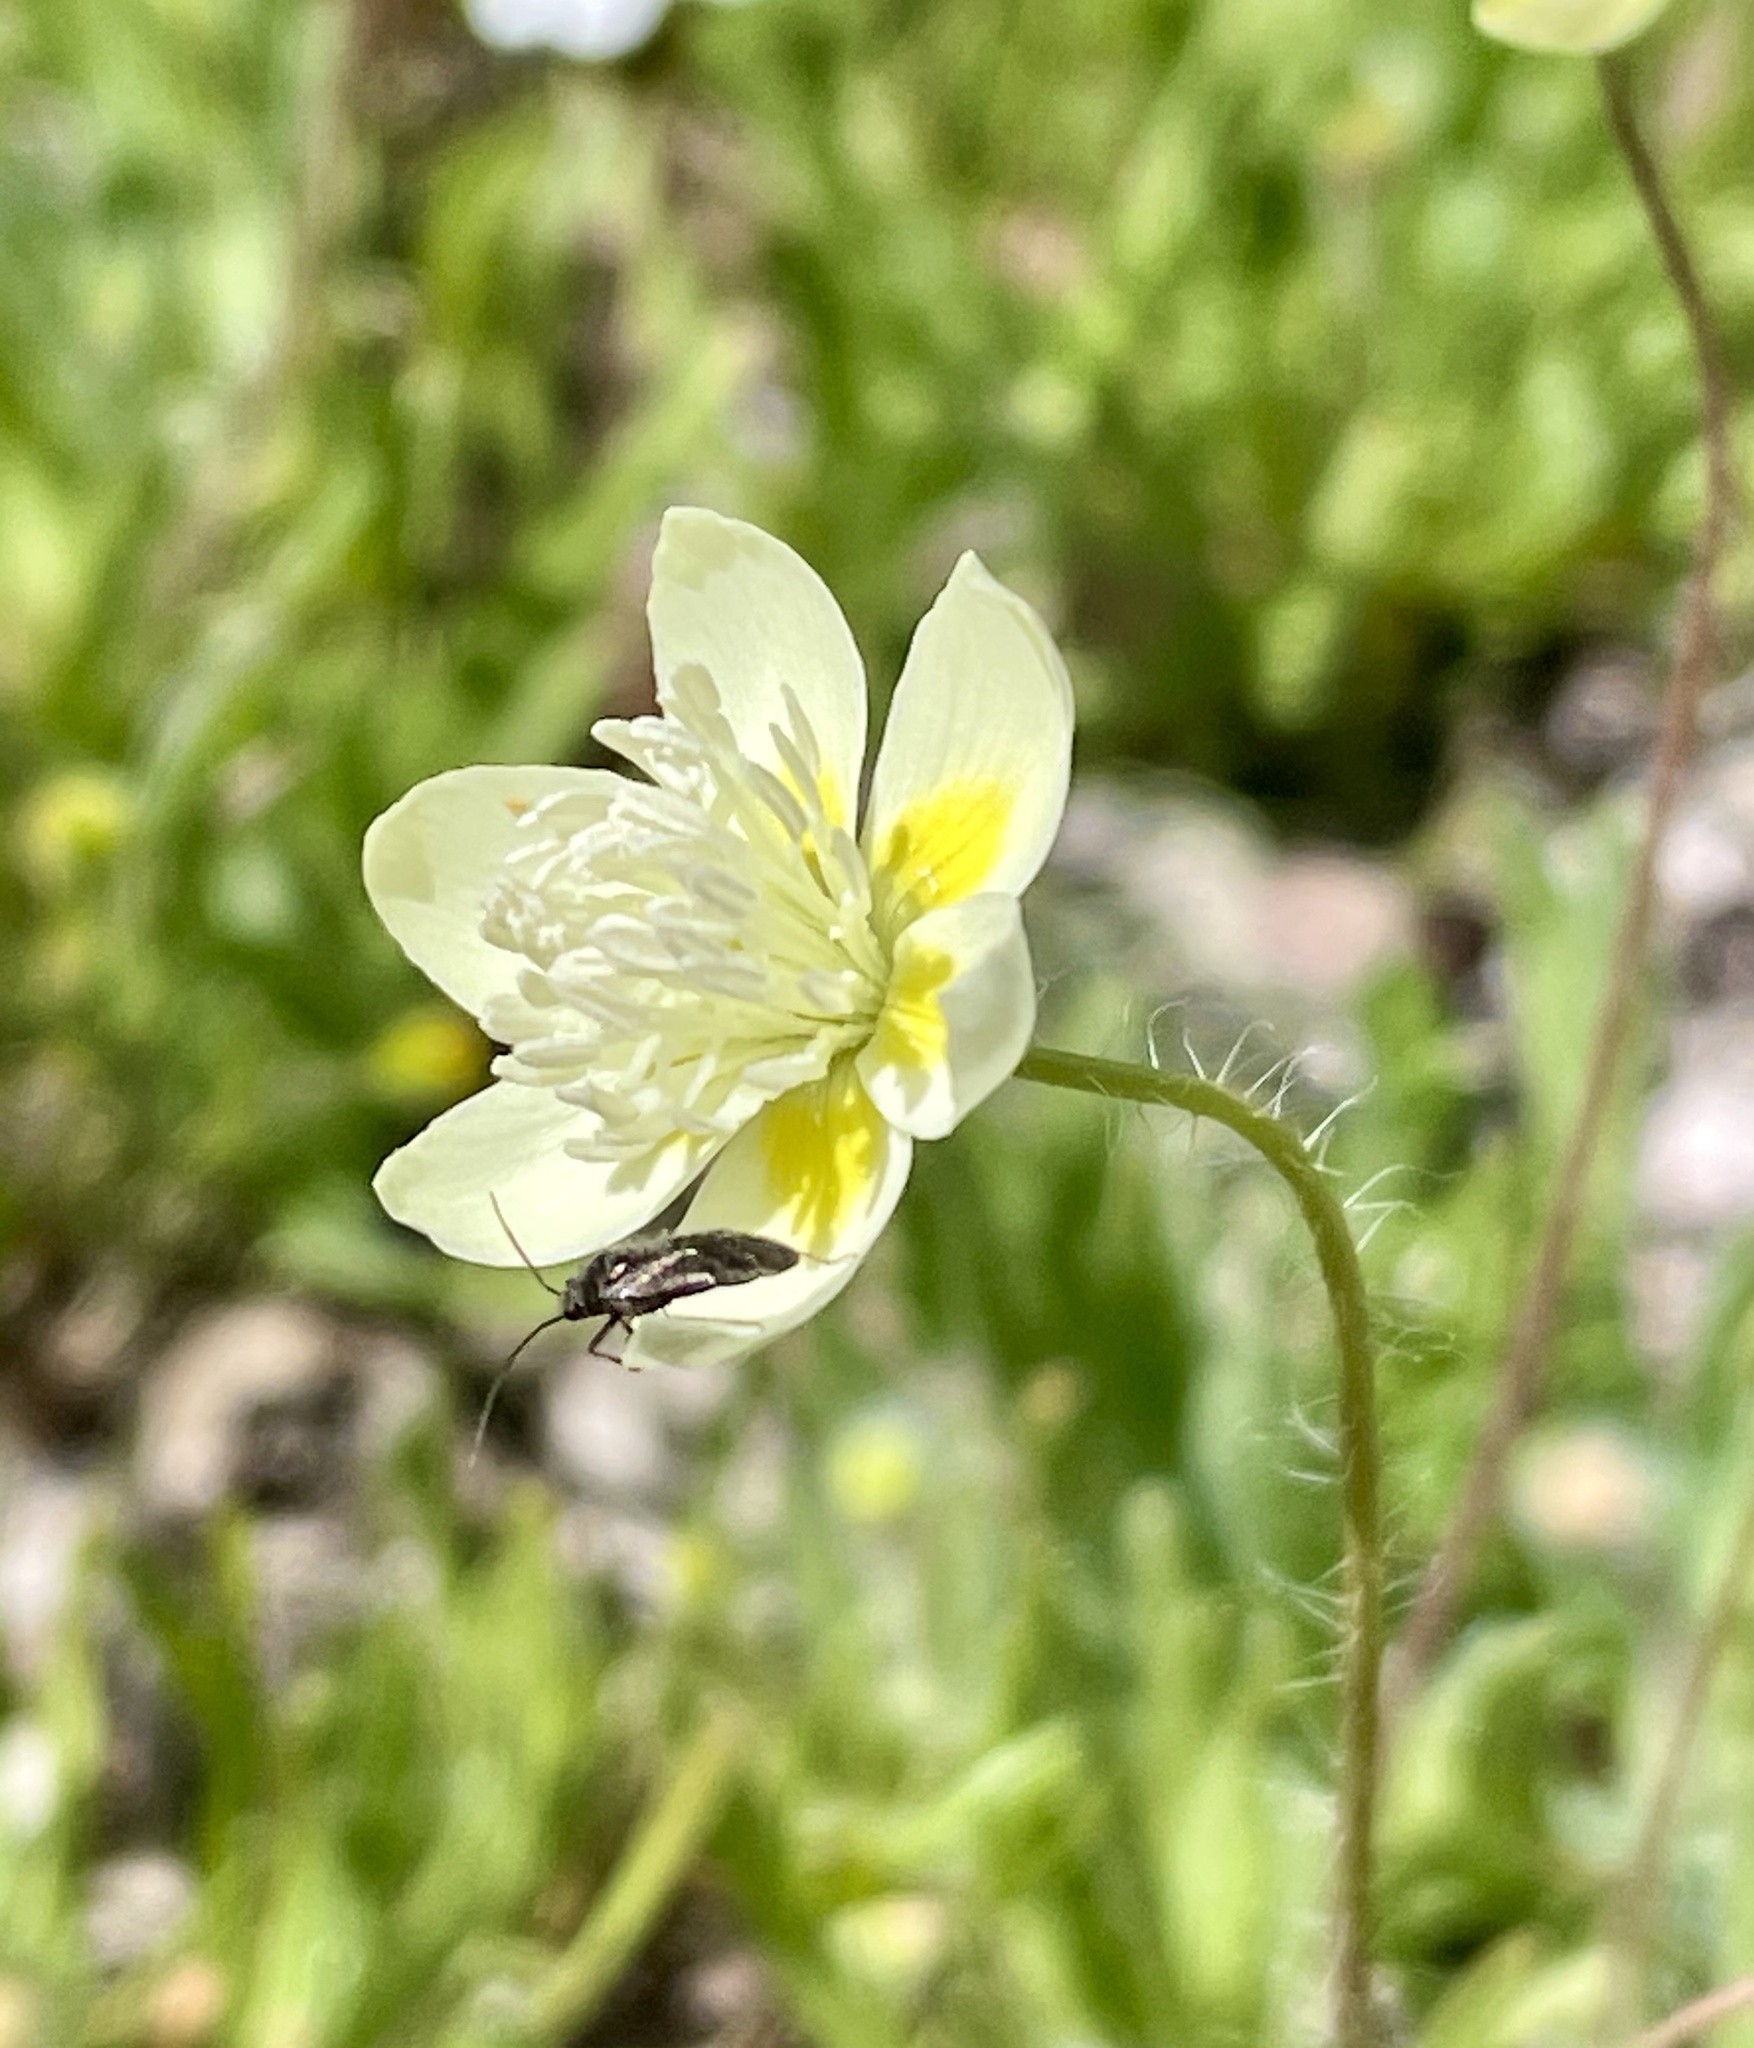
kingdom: Plantae
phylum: Tracheophyta
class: Magnoliopsida
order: Ranunculales
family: Papaveraceae
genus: Platystemon
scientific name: Platystemon californicus
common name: Cream-cups
